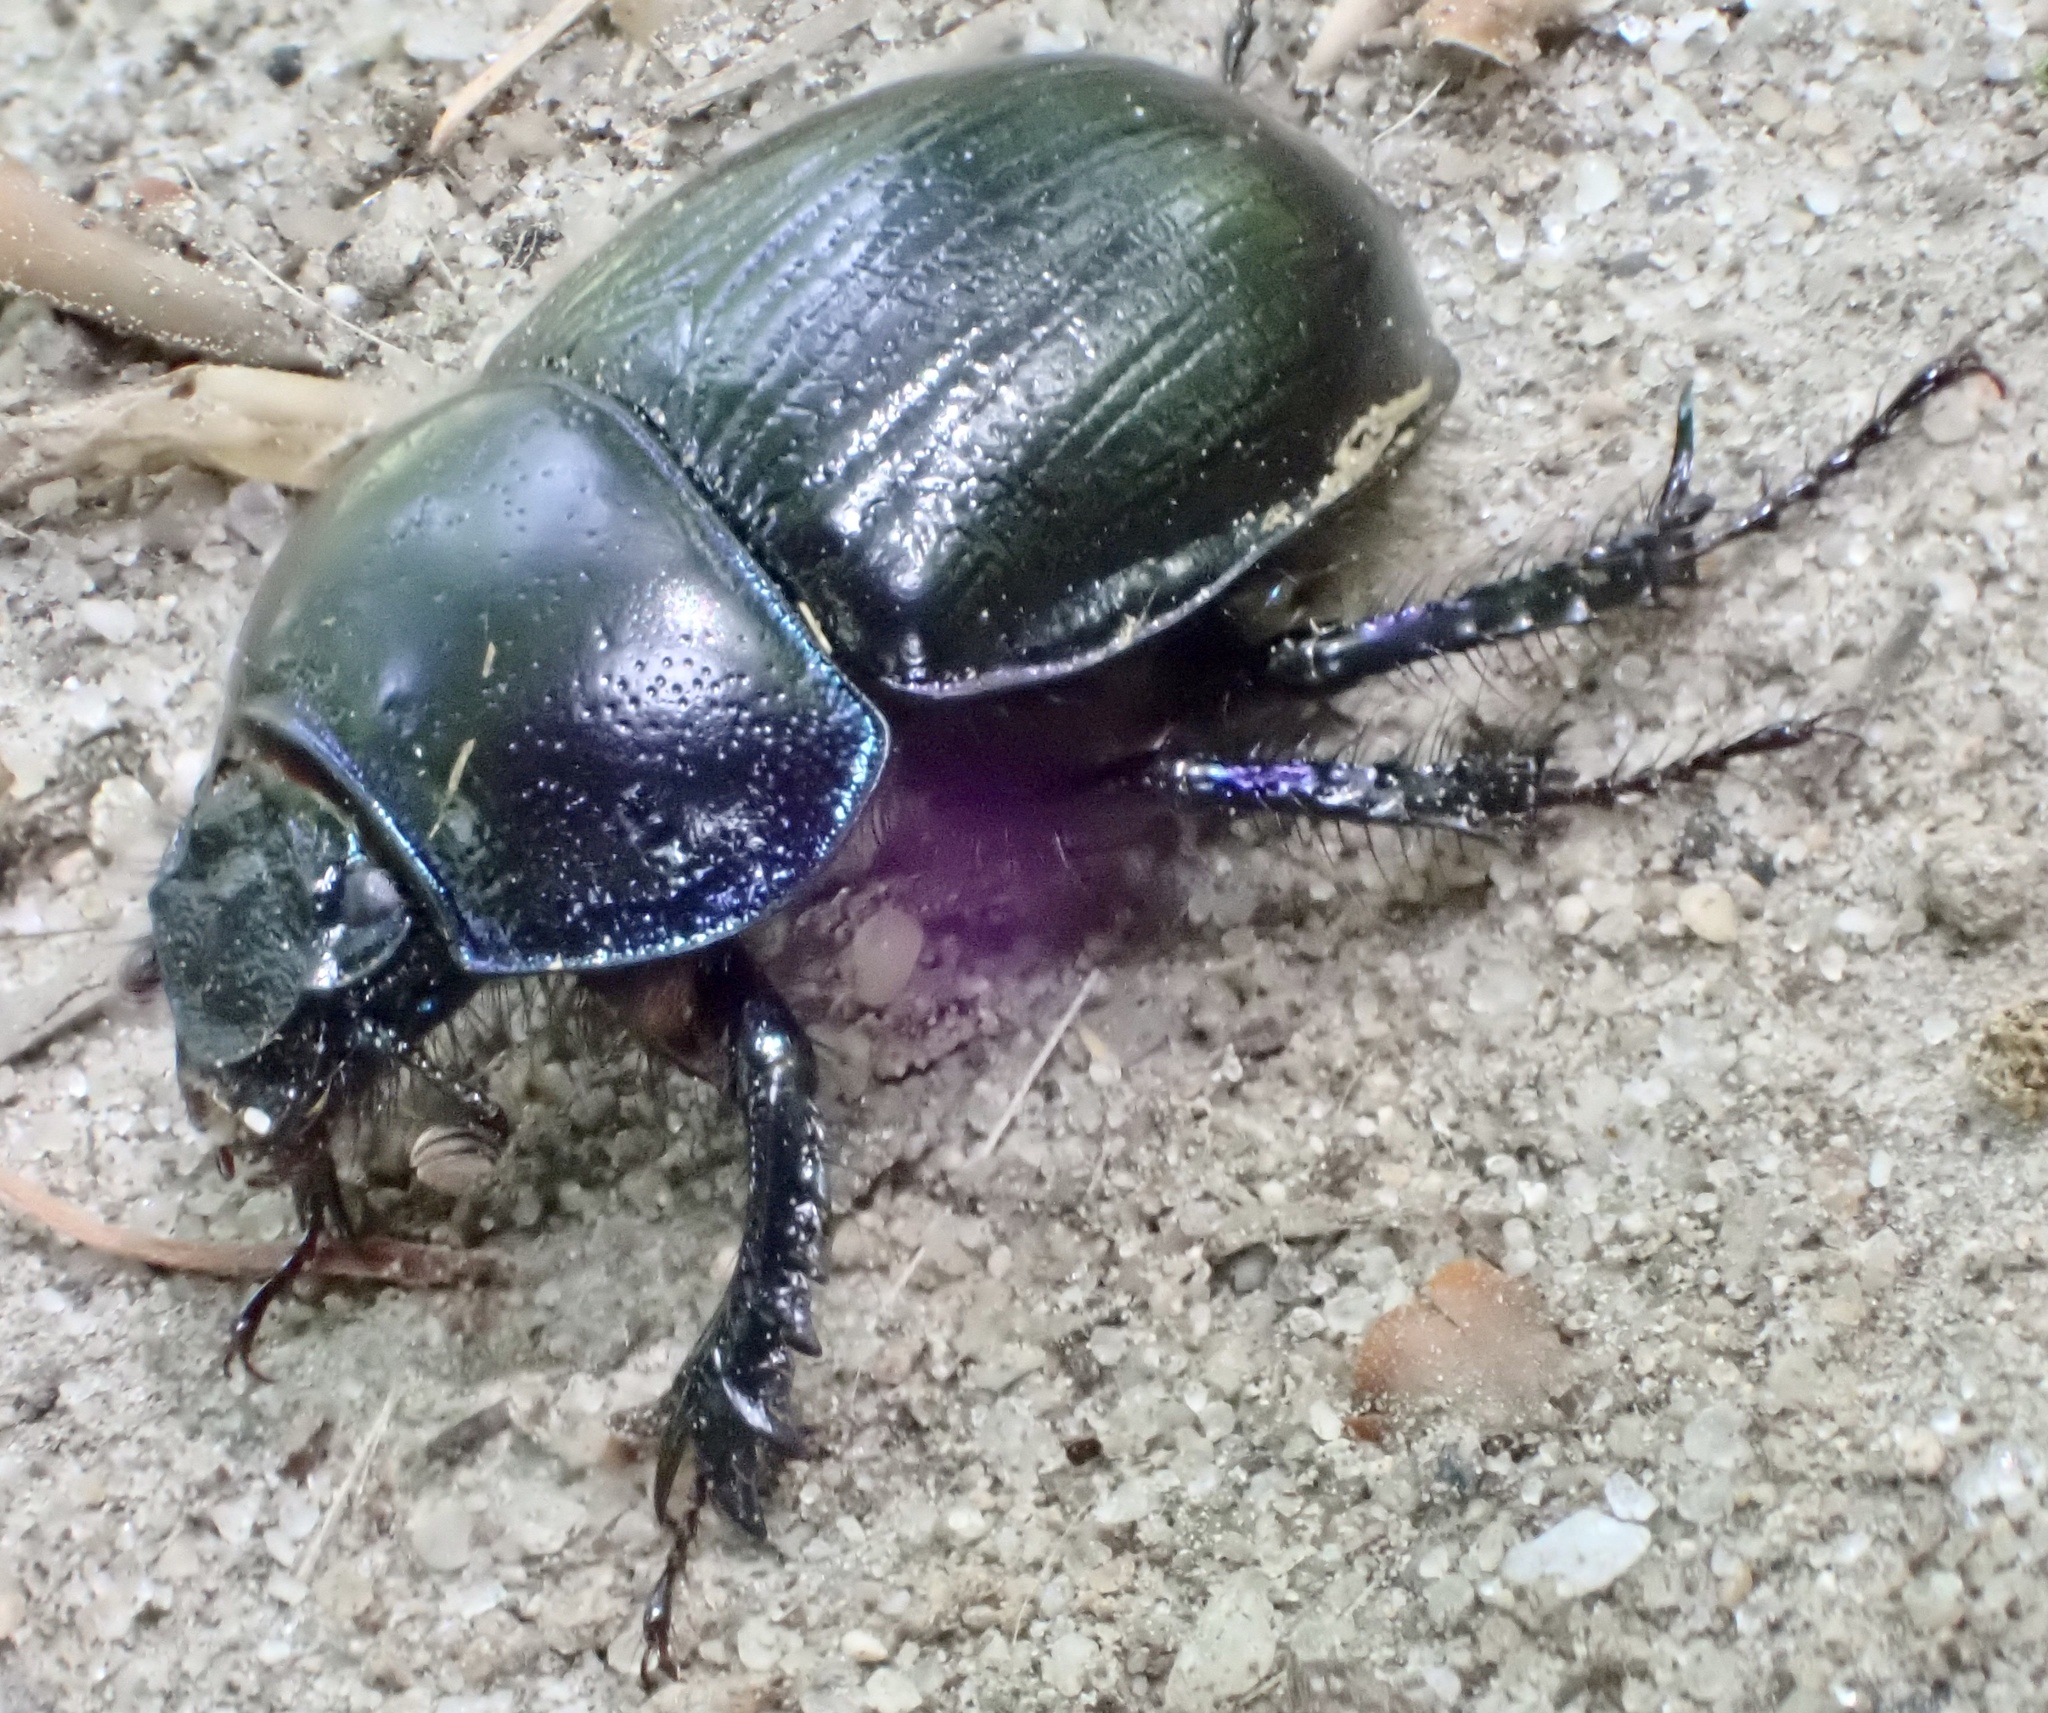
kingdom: Animalia
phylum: Arthropoda
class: Insecta
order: Coleoptera
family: Geotrupidae
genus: Anoplotrupes
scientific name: Anoplotrupes stercorosus
